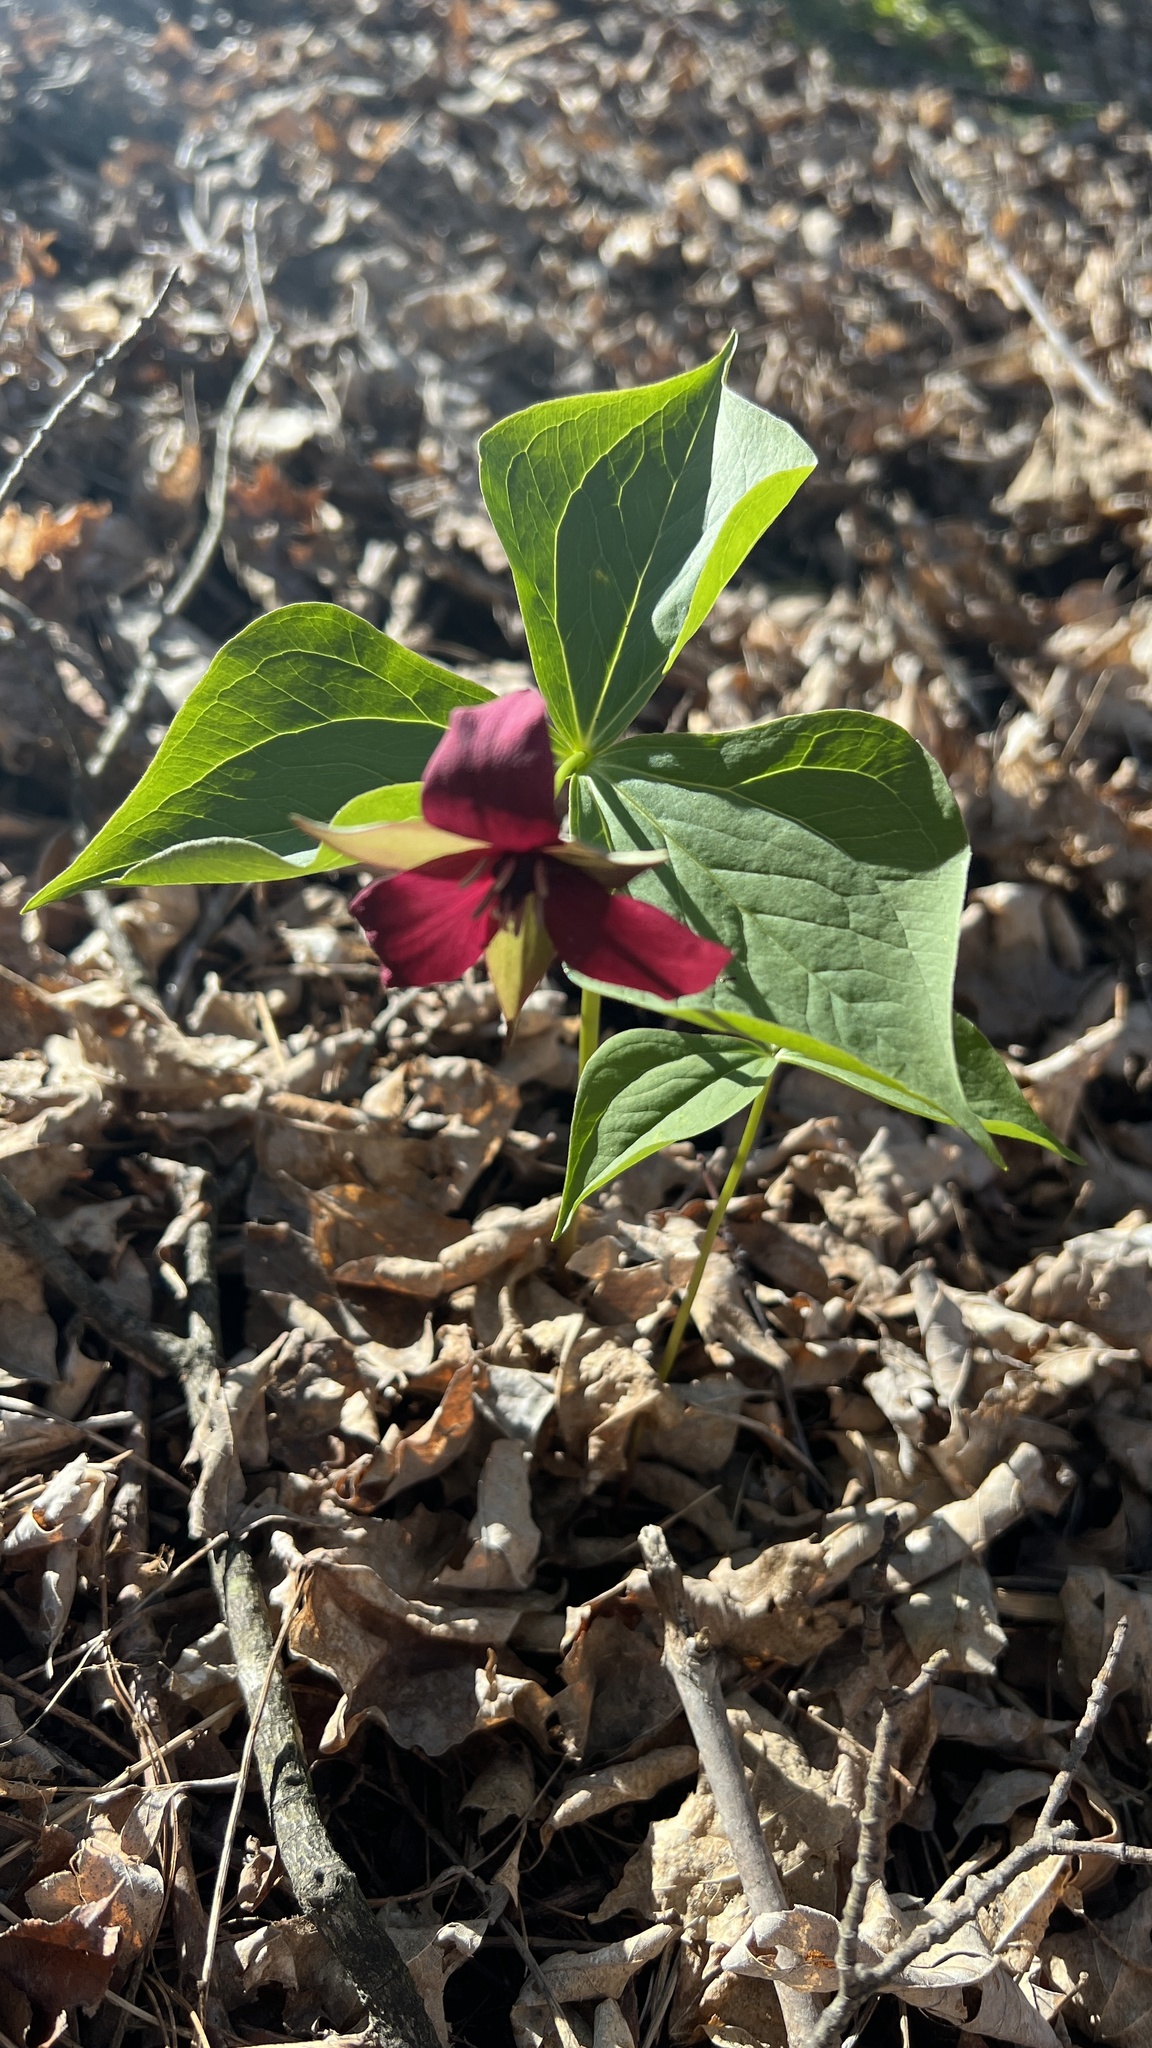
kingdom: Plantae
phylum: Tracheophyta
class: Liliopsida
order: Liliales
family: Melanthiaceae
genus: Trillium
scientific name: Trillium erectum
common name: Purple trillium
